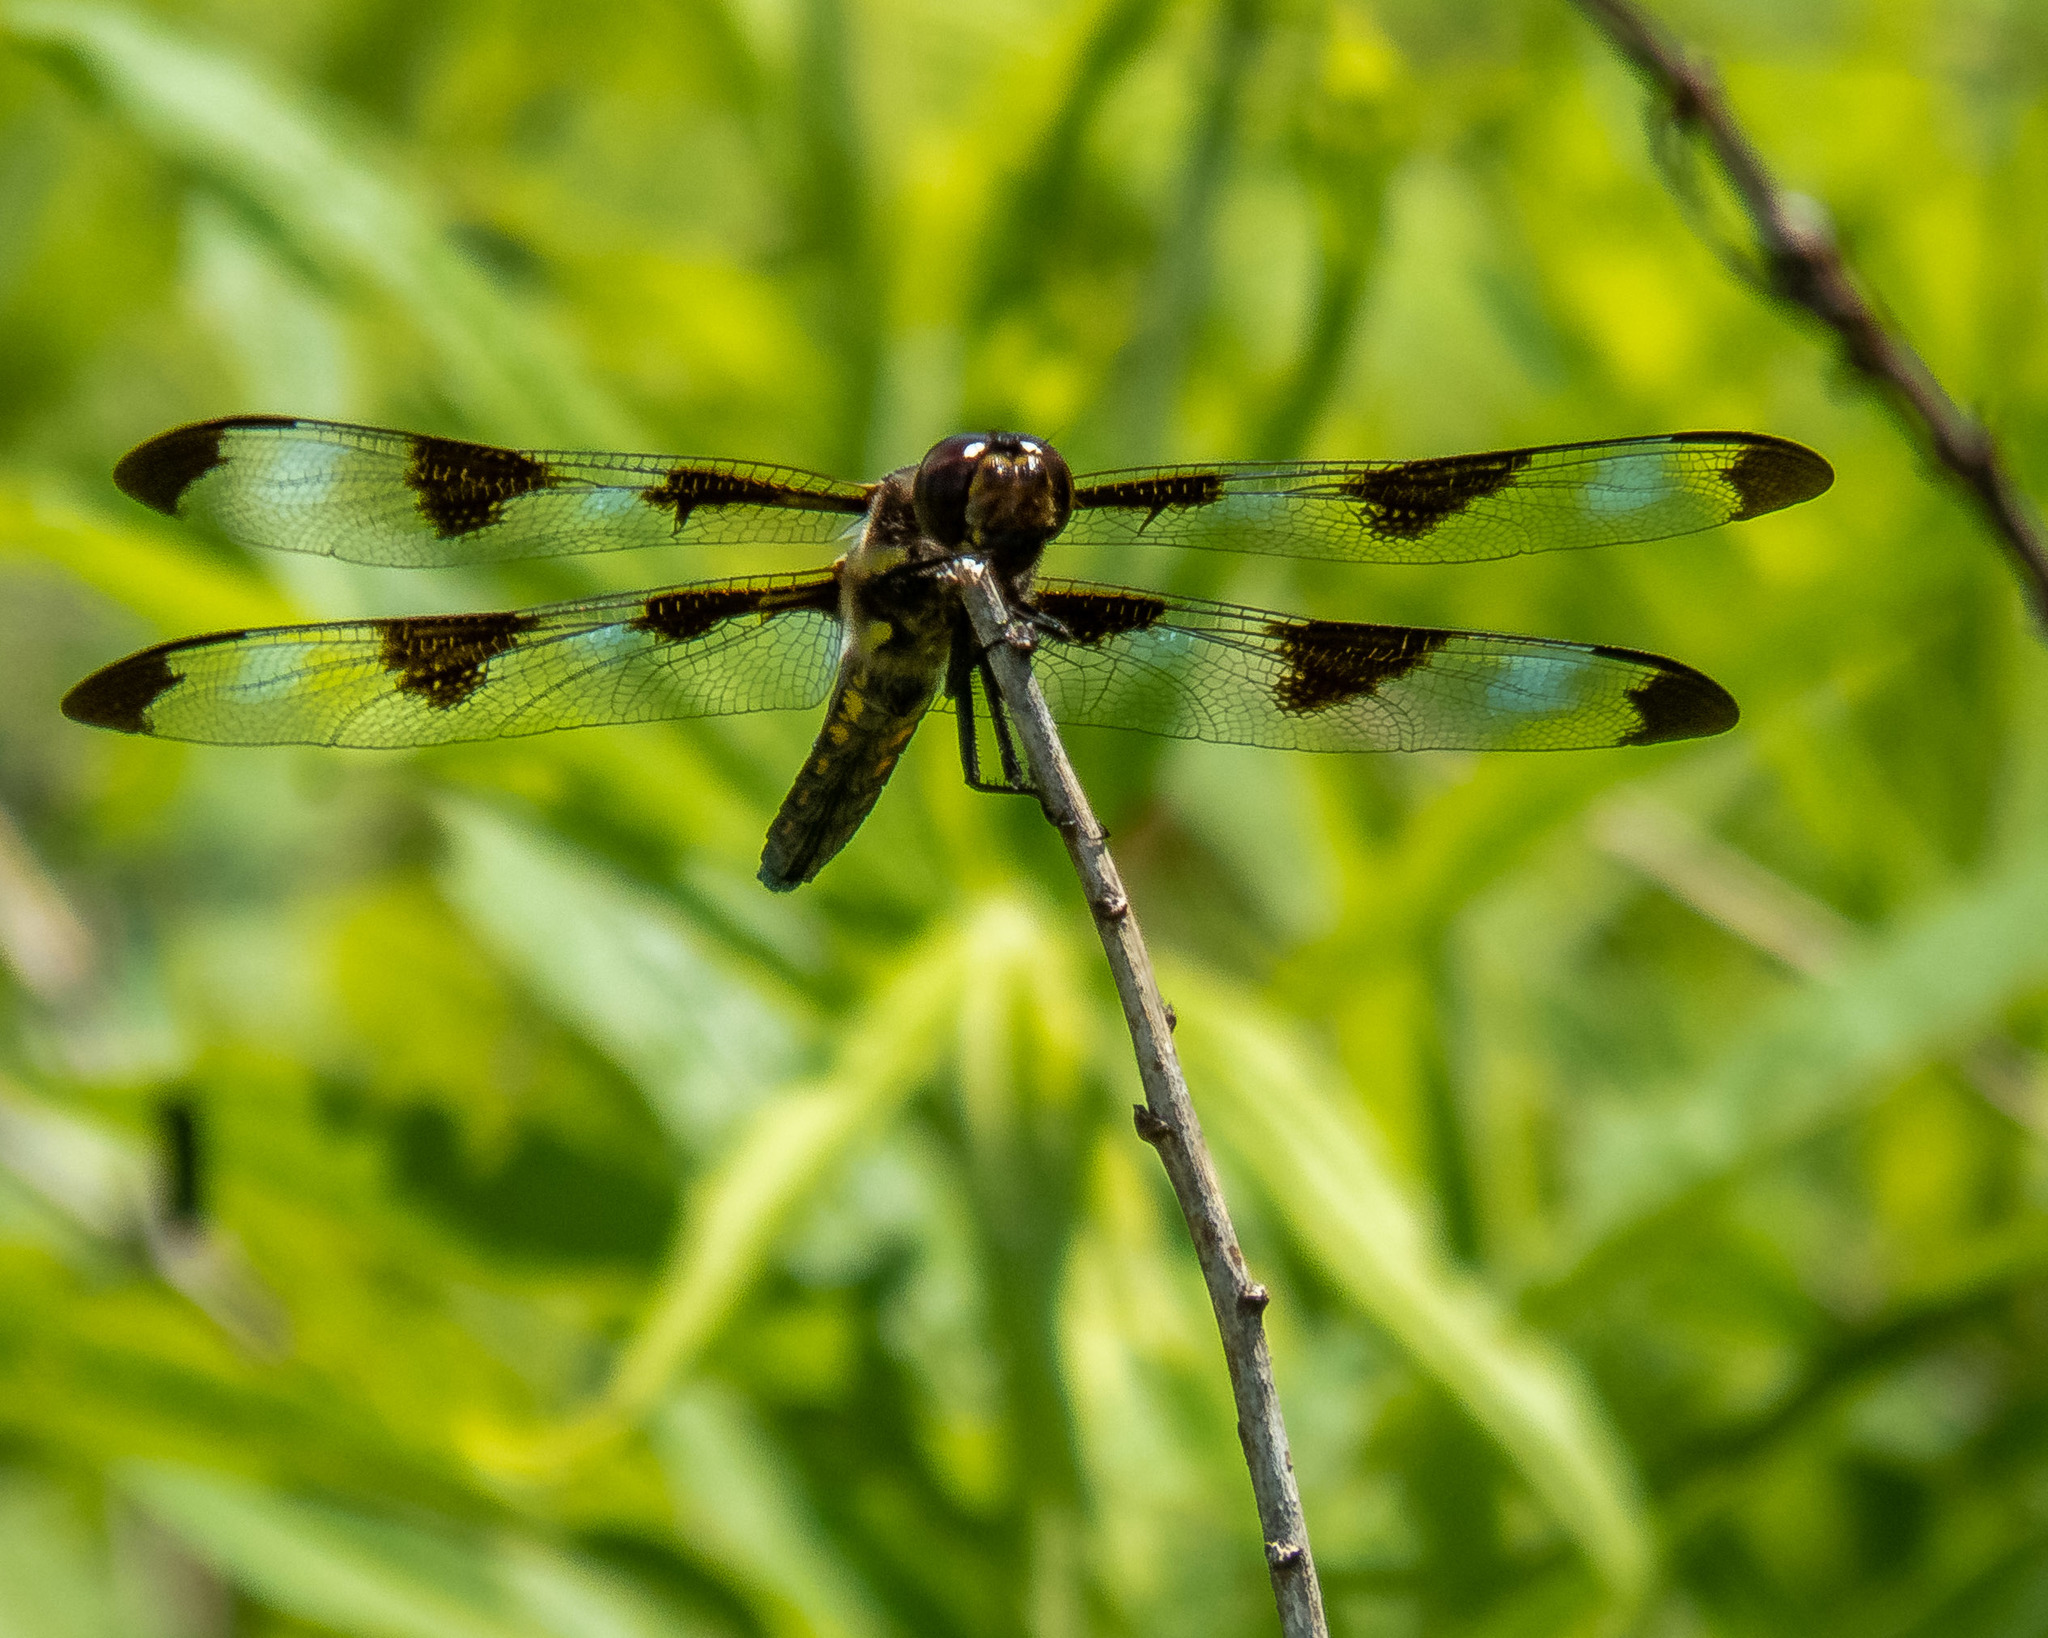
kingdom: Animalia
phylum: Arthropoda
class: Insecta
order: Odonata
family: Libellulidae
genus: Libellula
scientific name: Libellula pulchella
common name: Twelve-spotted skimmer
